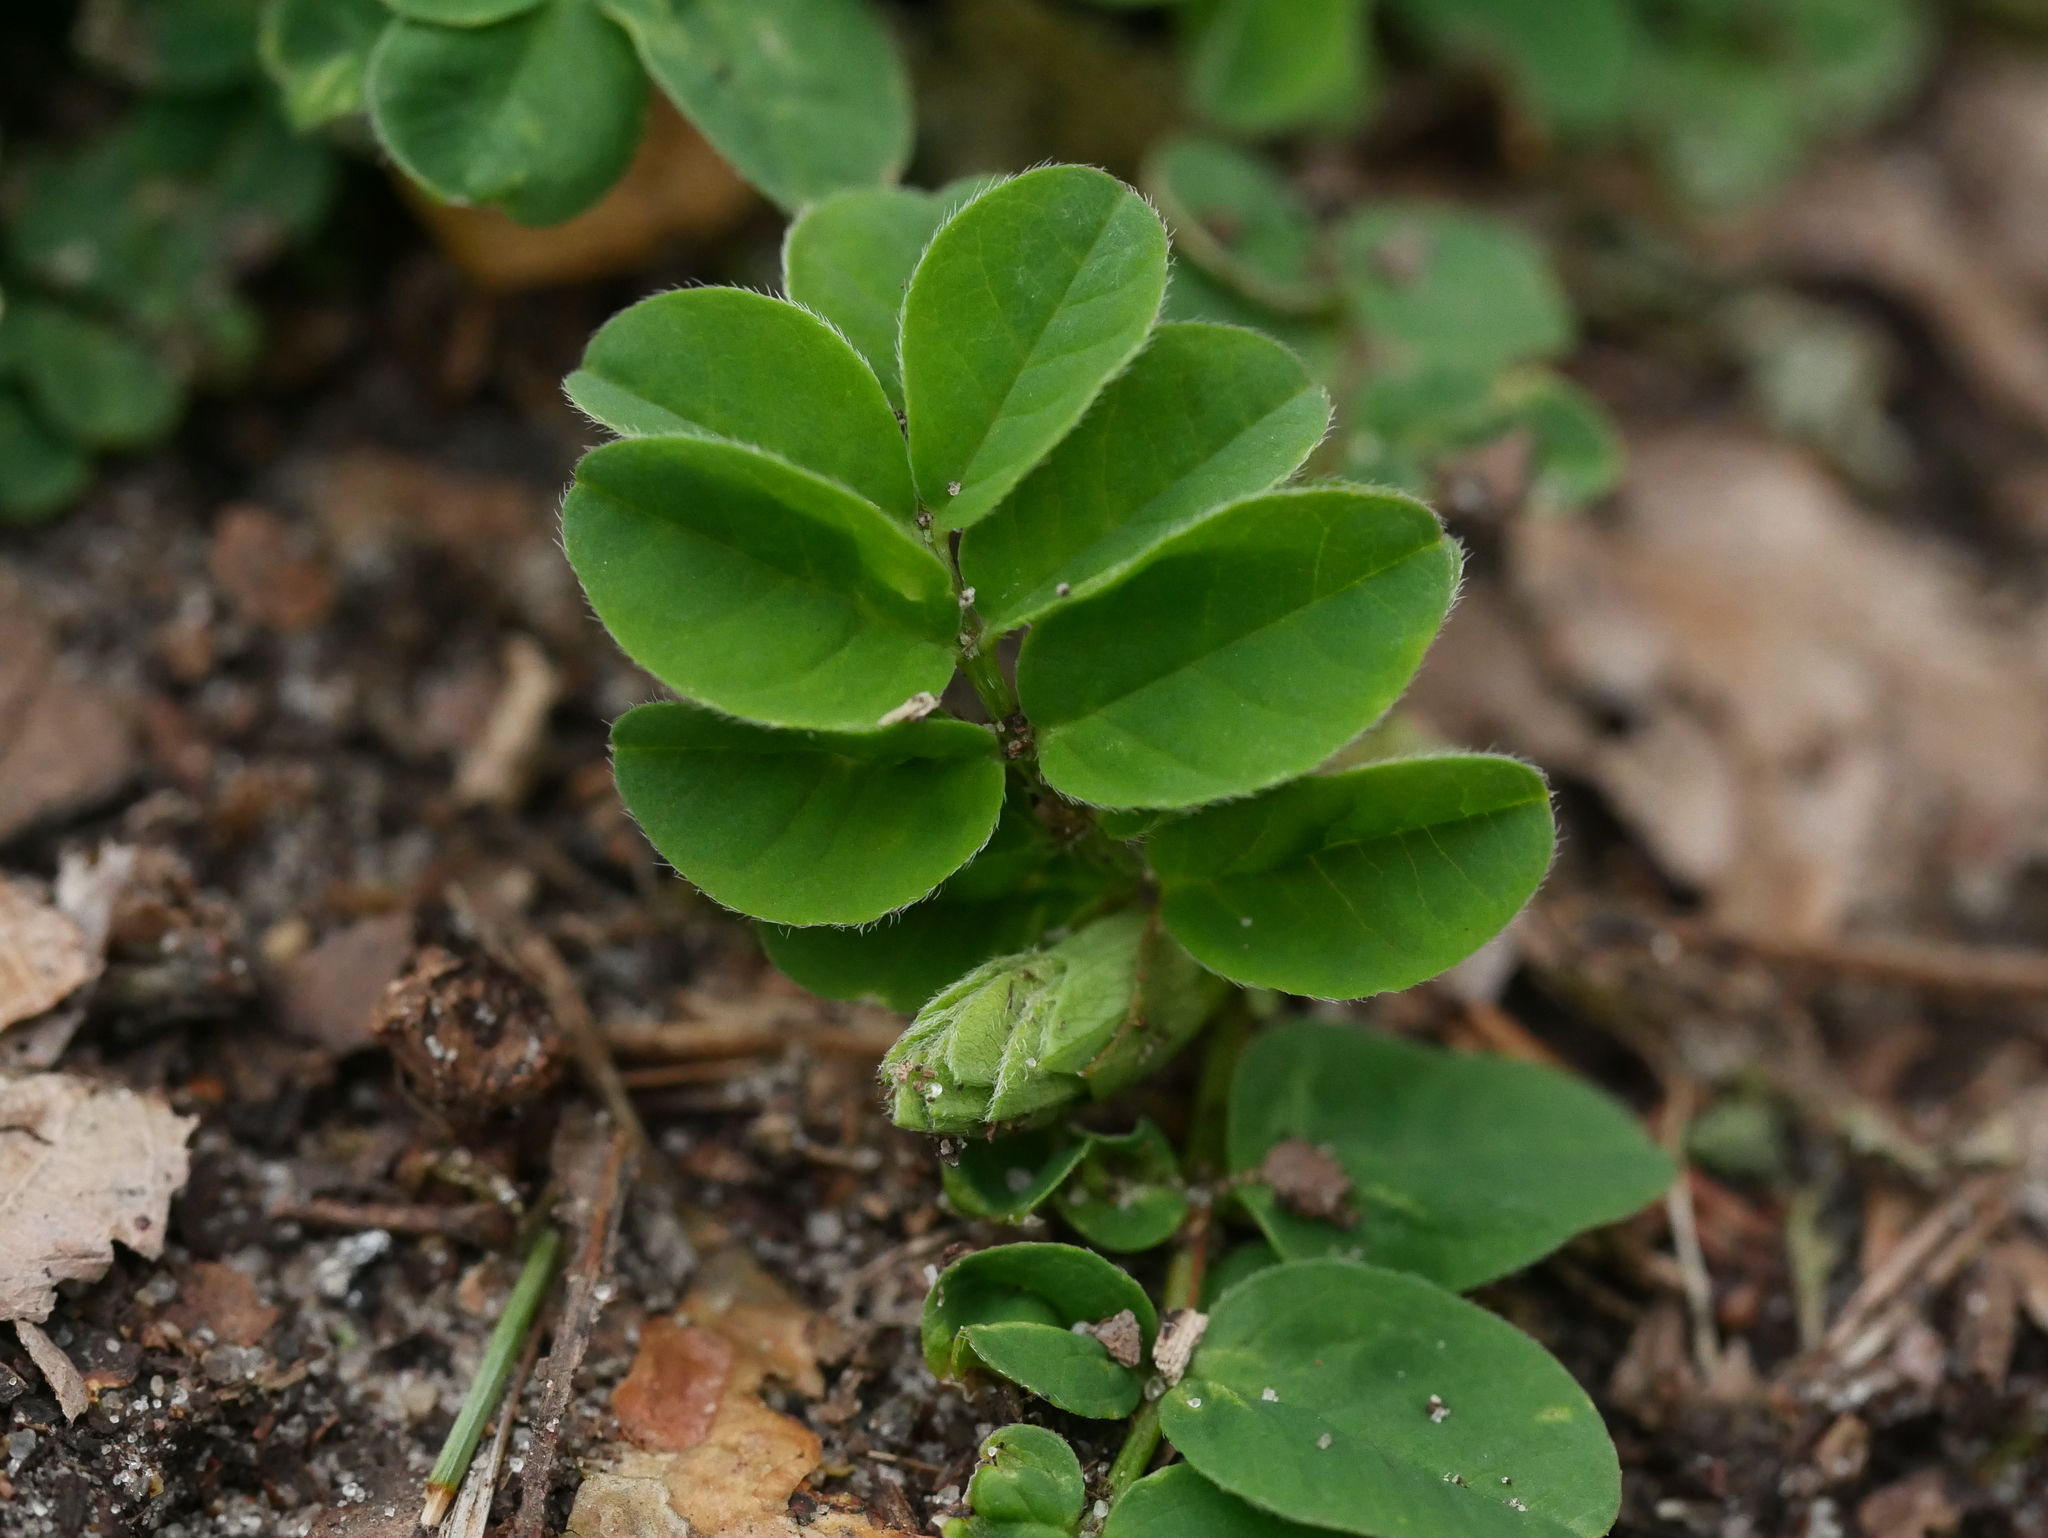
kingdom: Plantae
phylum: Tracheophyta
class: Magnoliopsida
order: Fabales
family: Fabaceae
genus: Astragalus
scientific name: Astragalus glycyphyllos
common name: Wild liquorice
